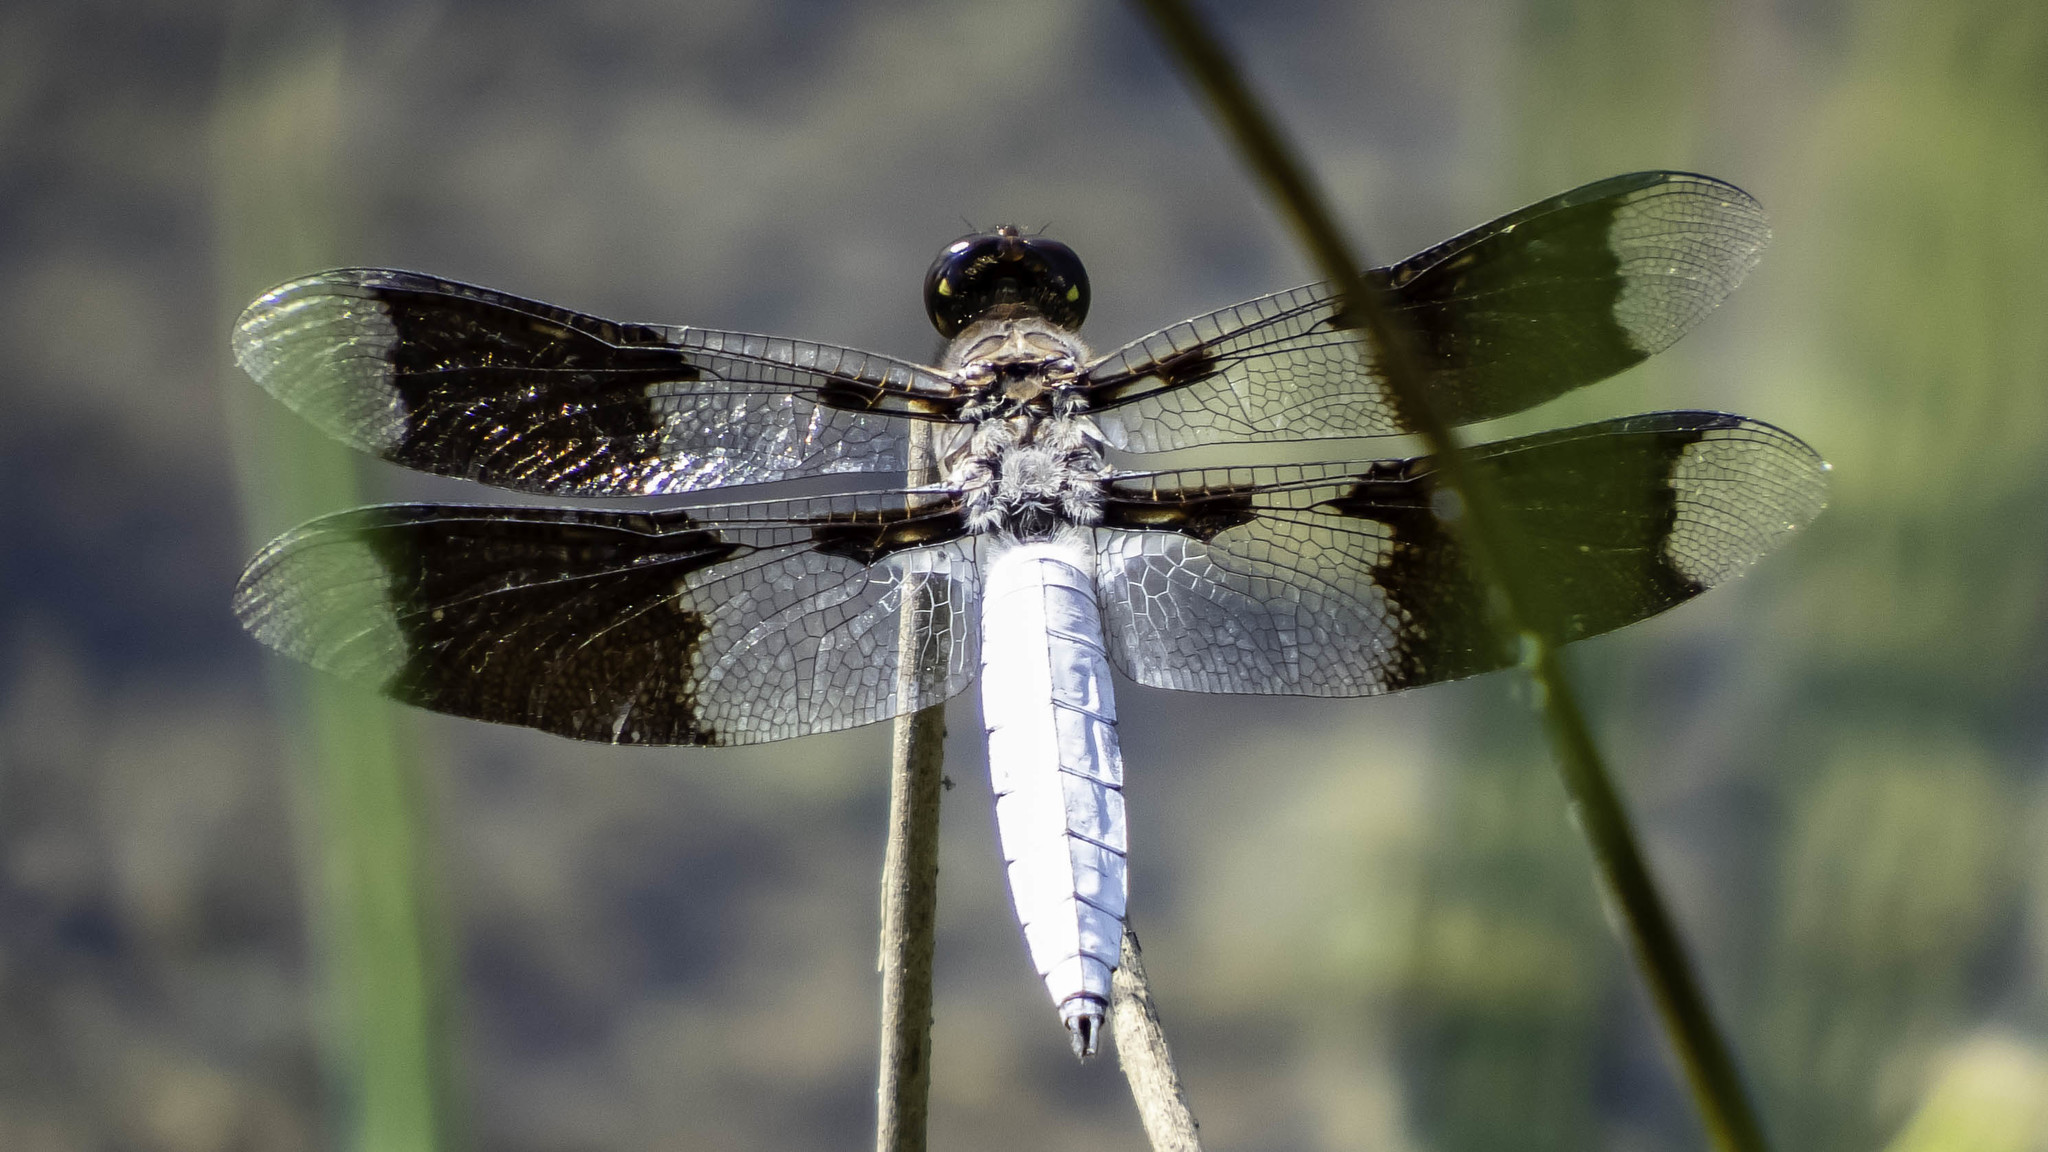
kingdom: Animalia
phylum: Arthropoda
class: Insecta
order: Odonata
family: Libellulidae
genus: Plathemis
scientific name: Plathemis lydia
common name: Common whitetail
